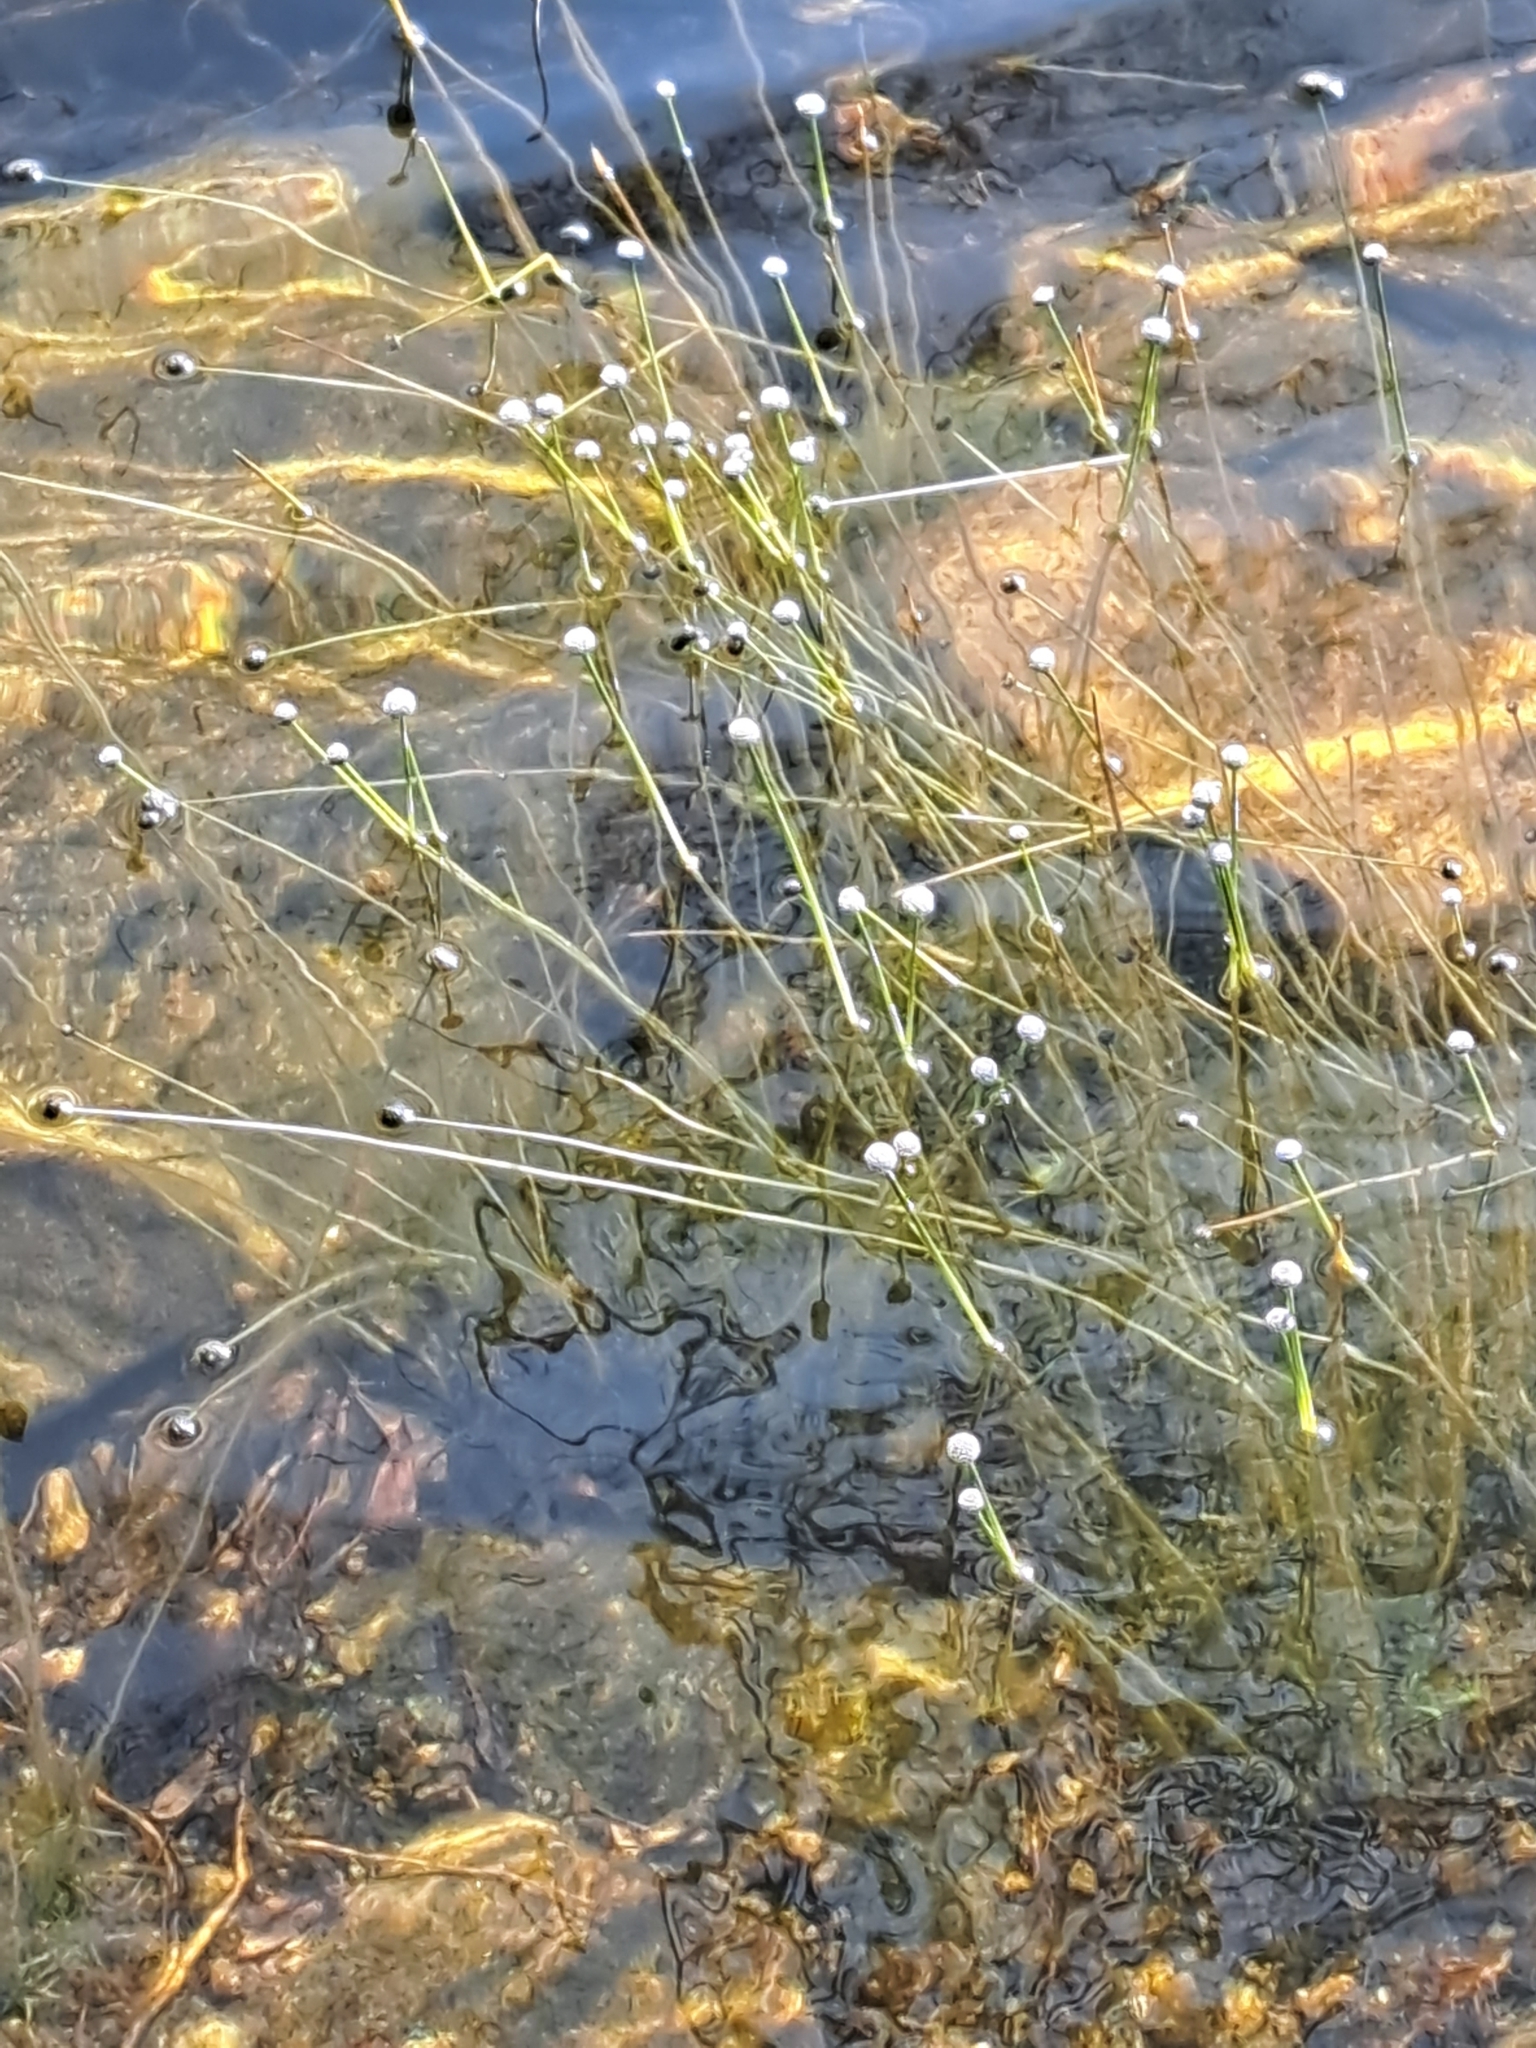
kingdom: Plantae
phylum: Tracheophyta
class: Liliopsida
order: Poales
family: Eriocaulaceae
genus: Eriocaulon
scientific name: Eriocaulon aquaticum
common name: Pipewort
